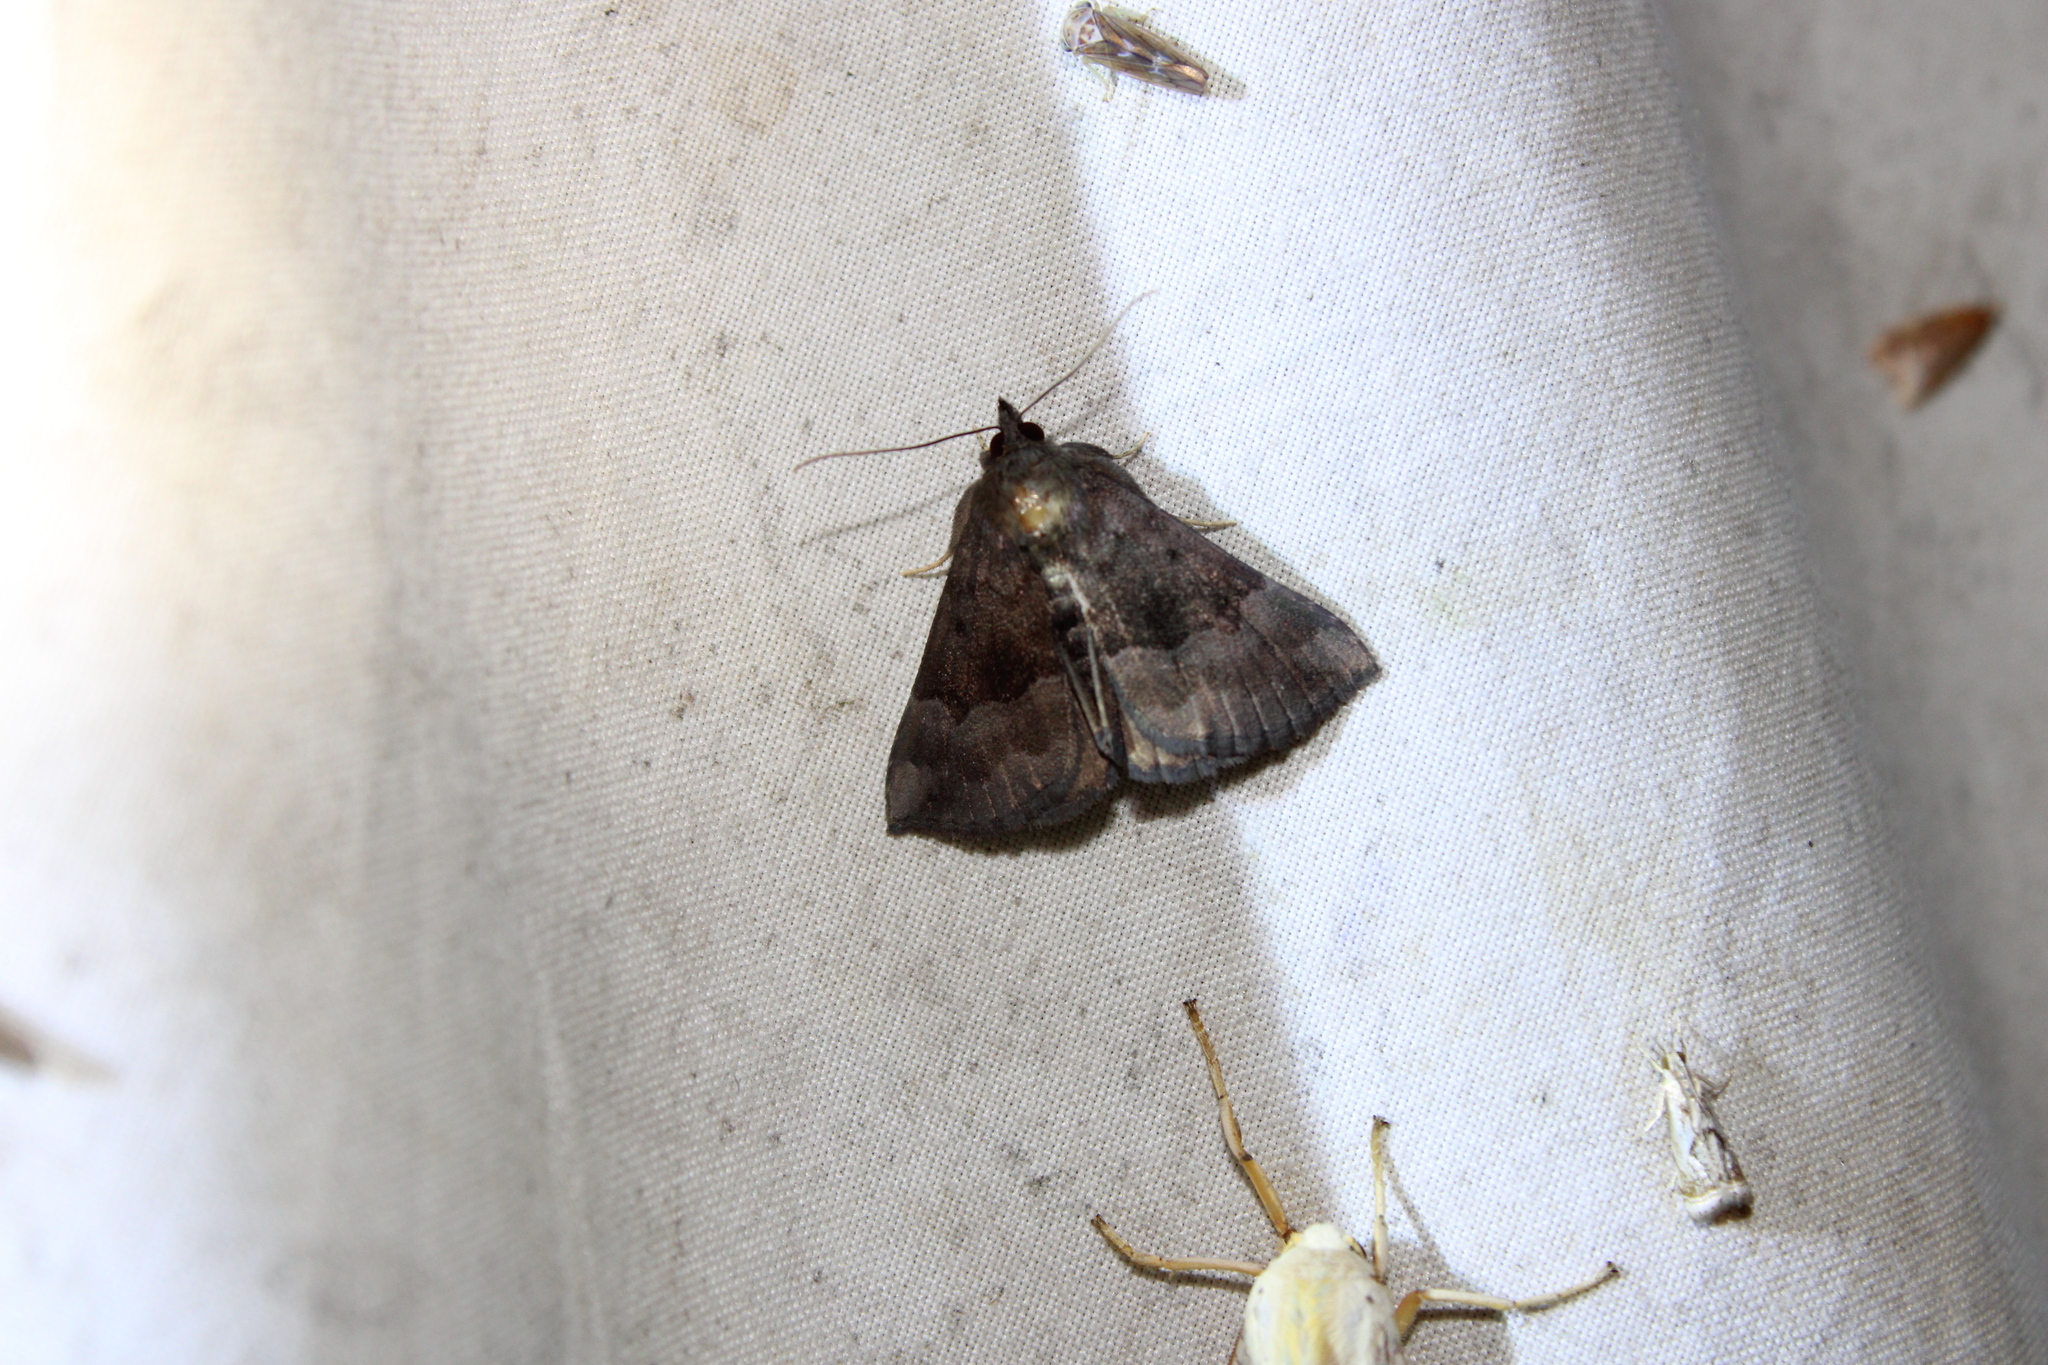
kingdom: Animalia
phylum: Arthropoda
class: Insecta
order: Lepidoptera
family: Erebidae
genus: Hypena
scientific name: Hypena madefactalis
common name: Gray-edged snout
